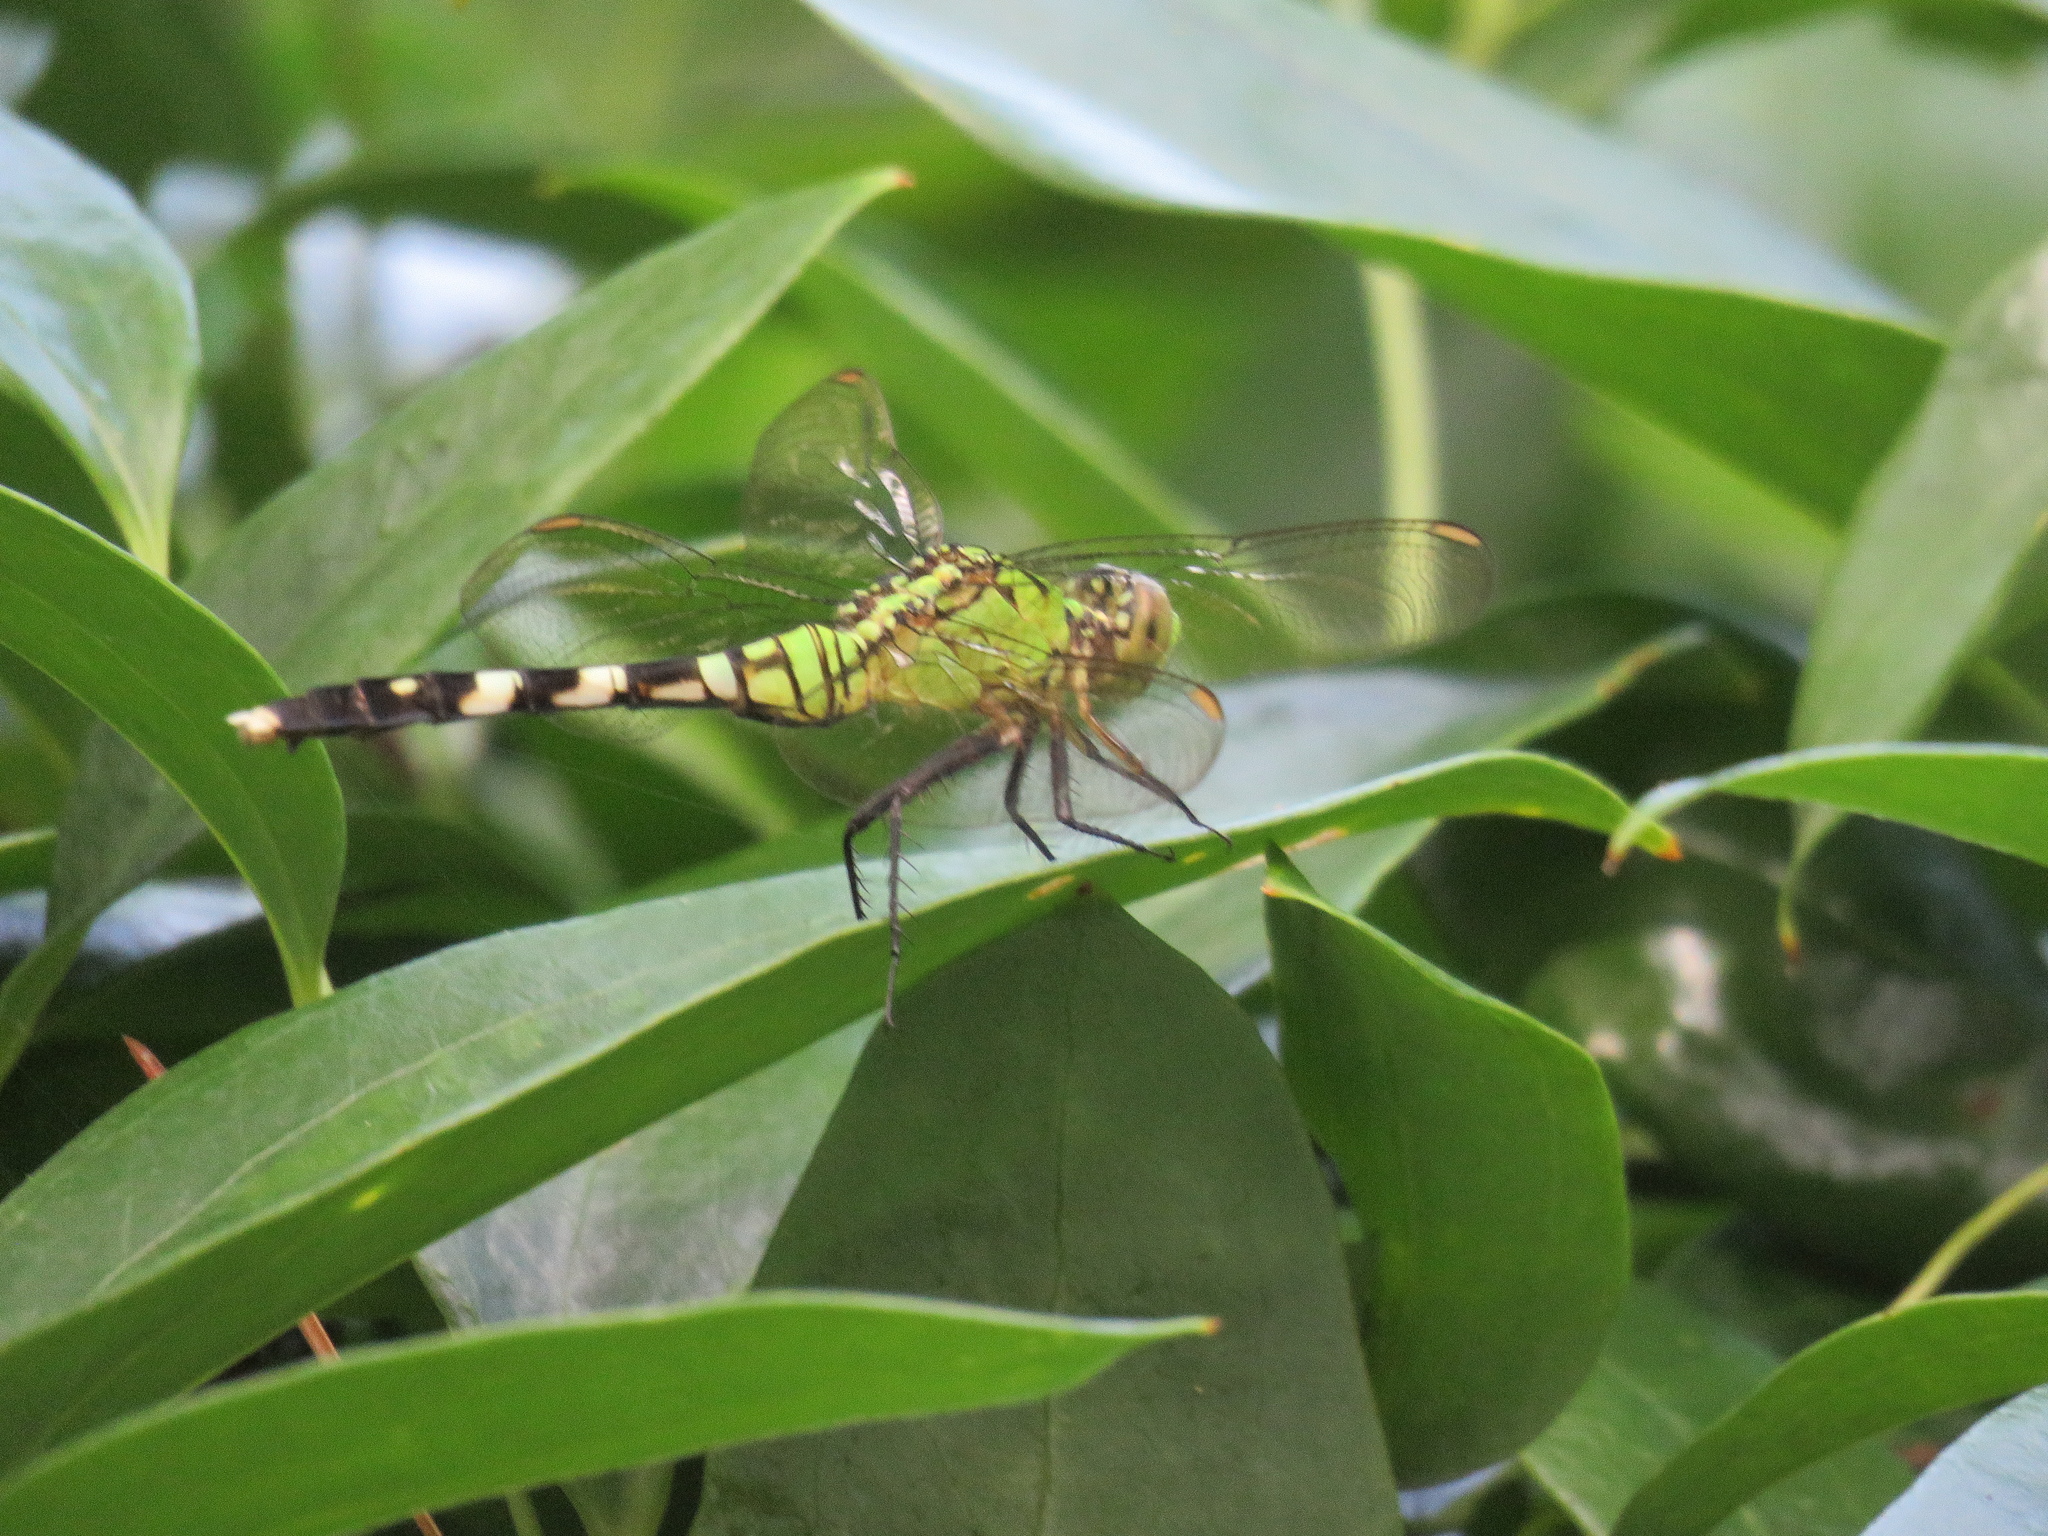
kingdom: Animalia
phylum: Arthropoda
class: Insecta
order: Odonata
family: Libellulidae
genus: Erythemis
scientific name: Erythemis simplicicollis
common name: Eastern pondhawk
